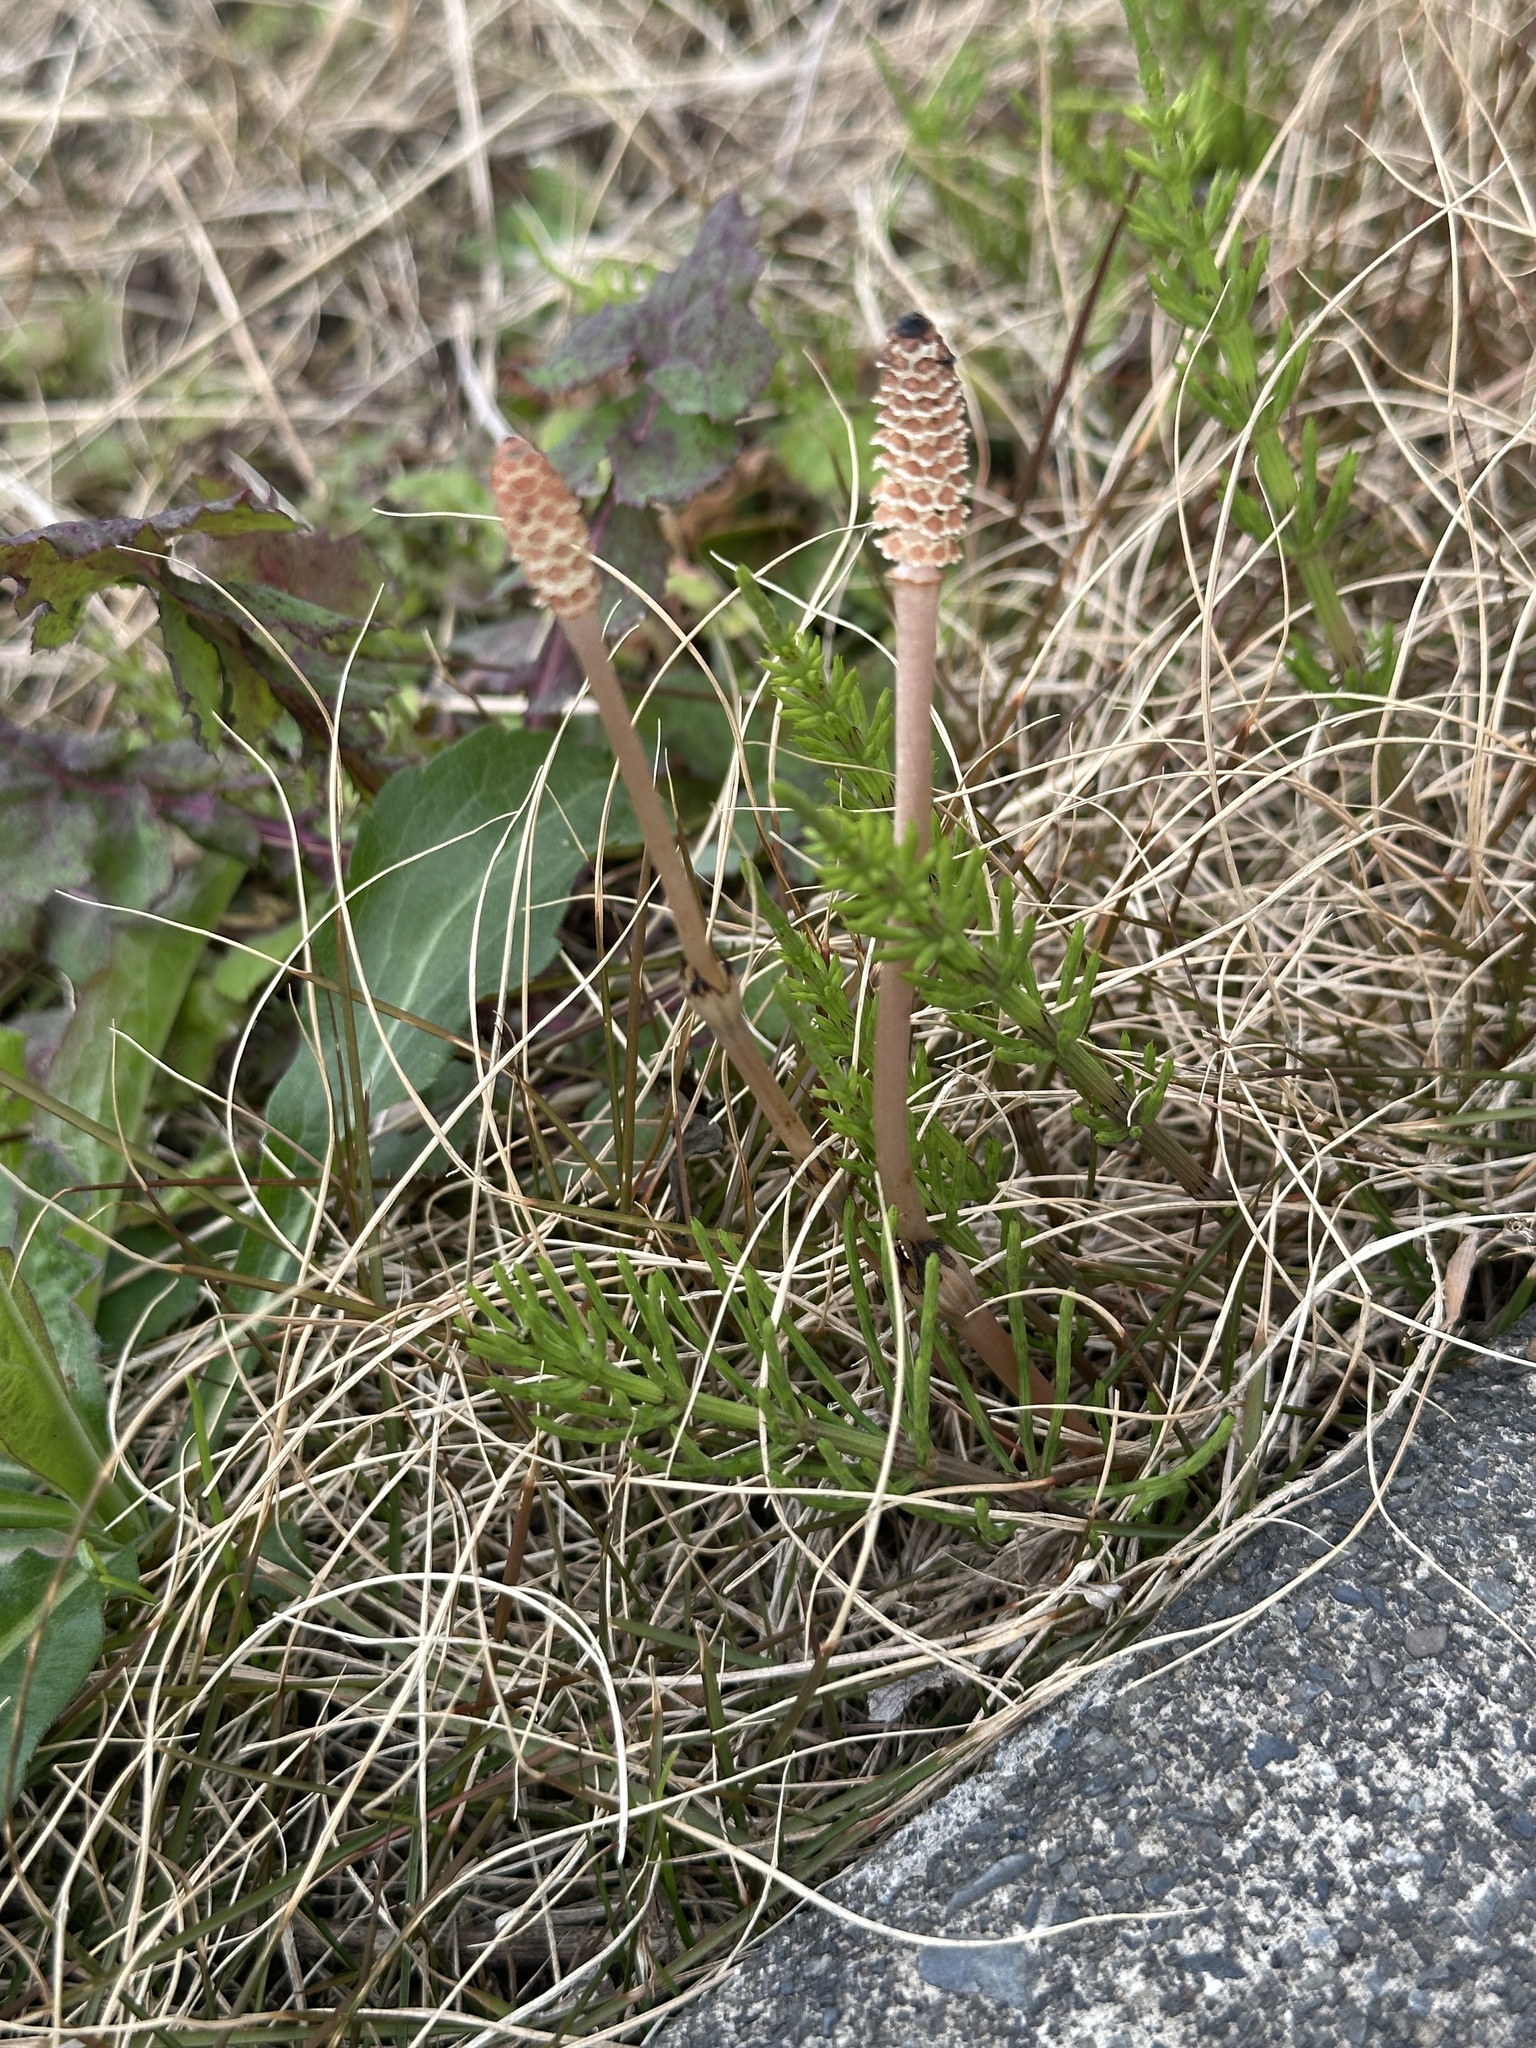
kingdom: Plantae
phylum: Tracheophyta
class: Polypodiopsida
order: Equisetales
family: Equisetaceae
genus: Equisetum
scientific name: Equisetum arvense
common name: Field horsetail
